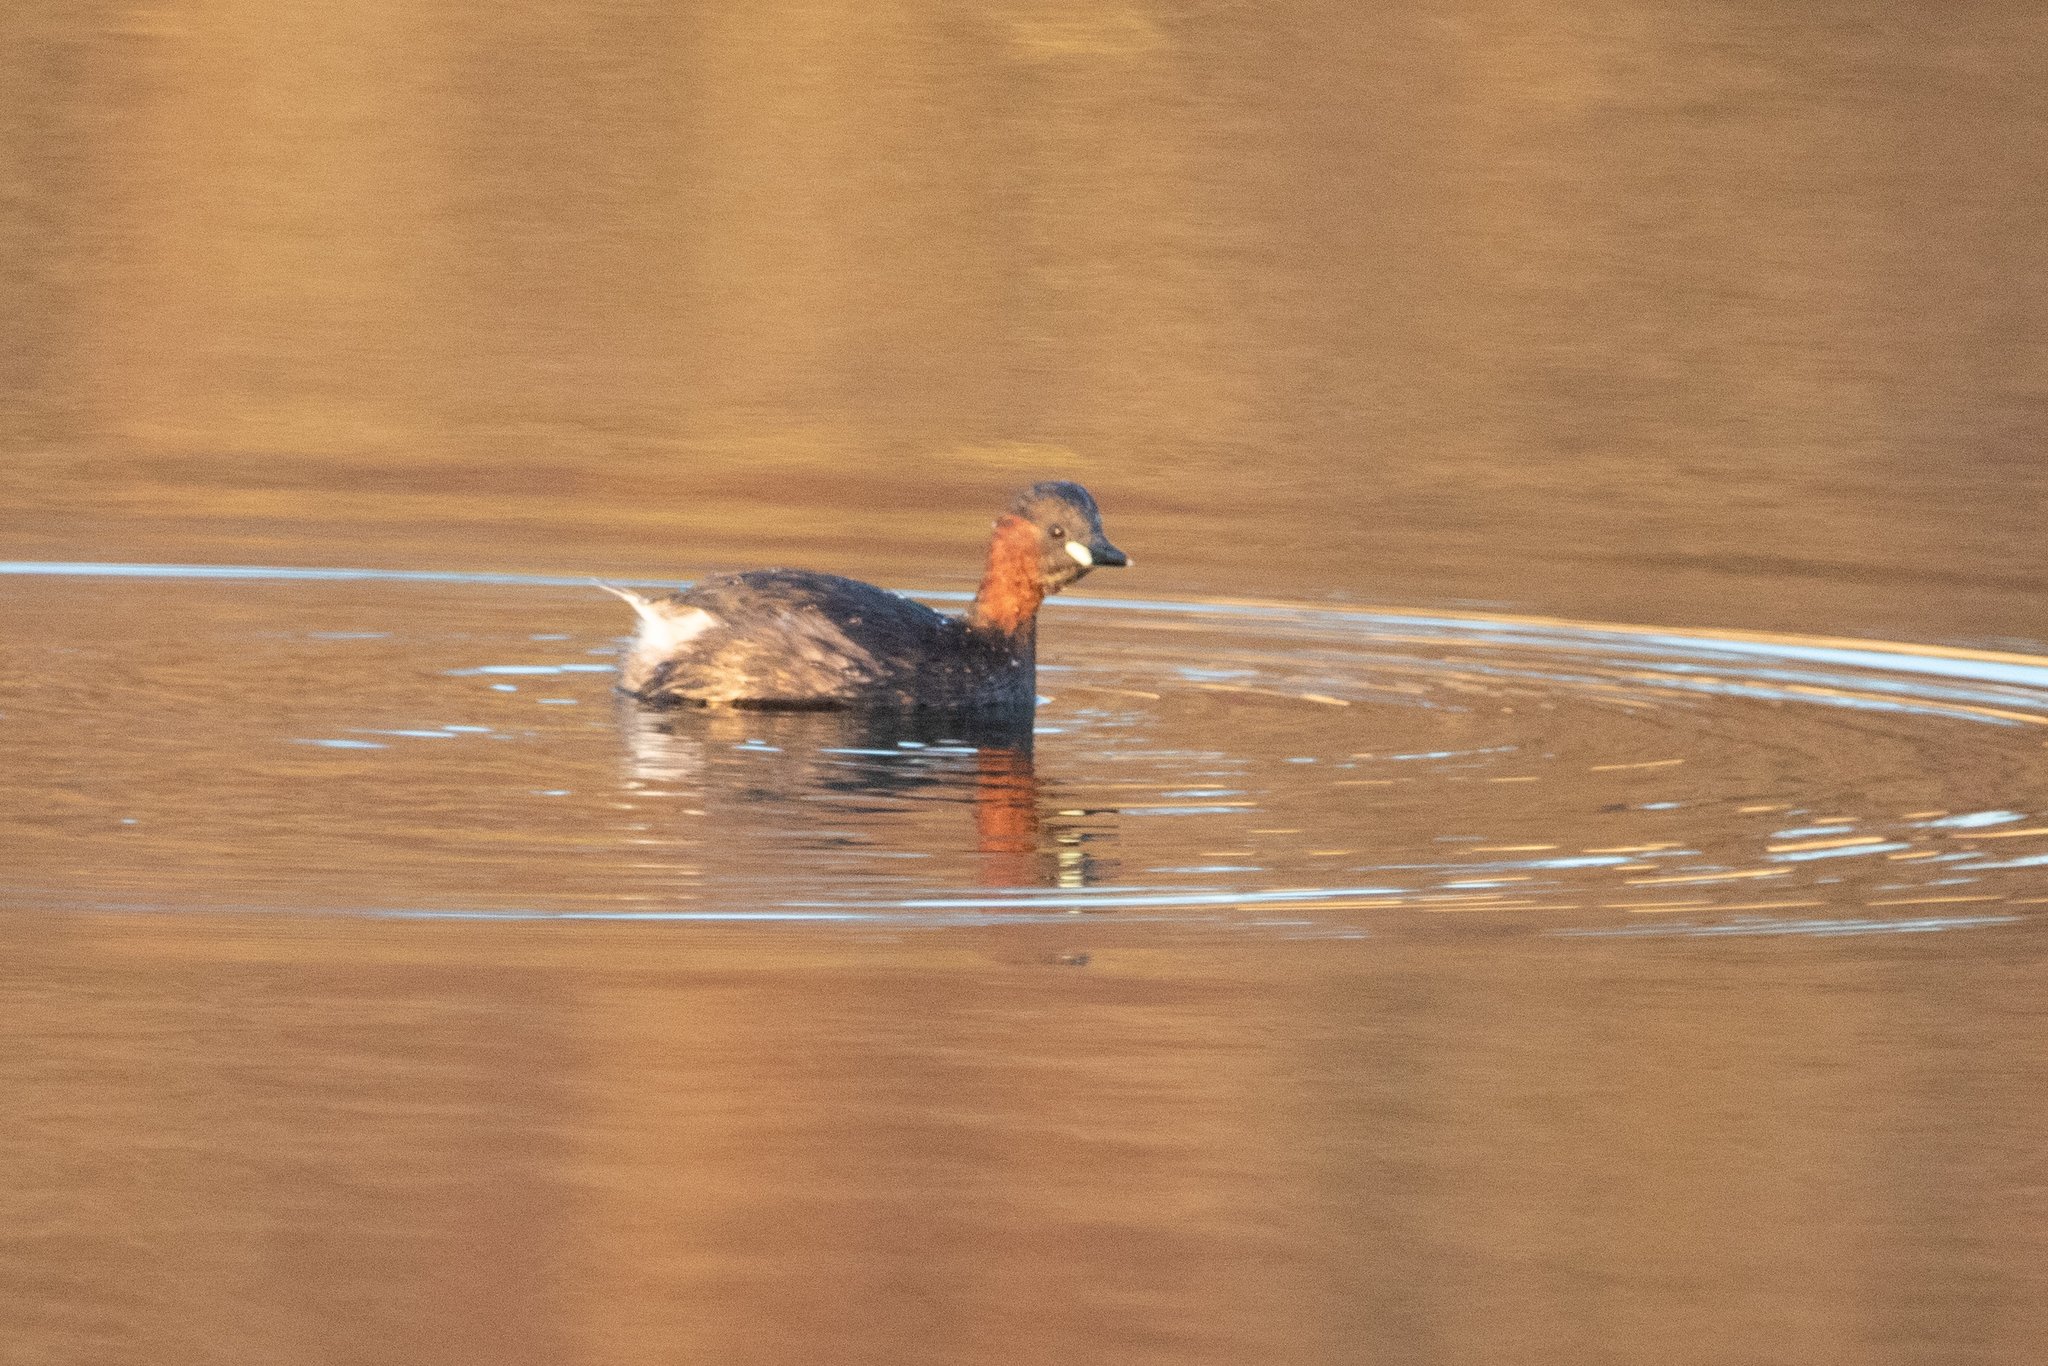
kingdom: Animalia
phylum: Chordata
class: Aves
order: Podicipediformes
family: Podicipedidae
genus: Tachybaptus
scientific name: Tachybaptus ruficollis
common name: Little grebe
